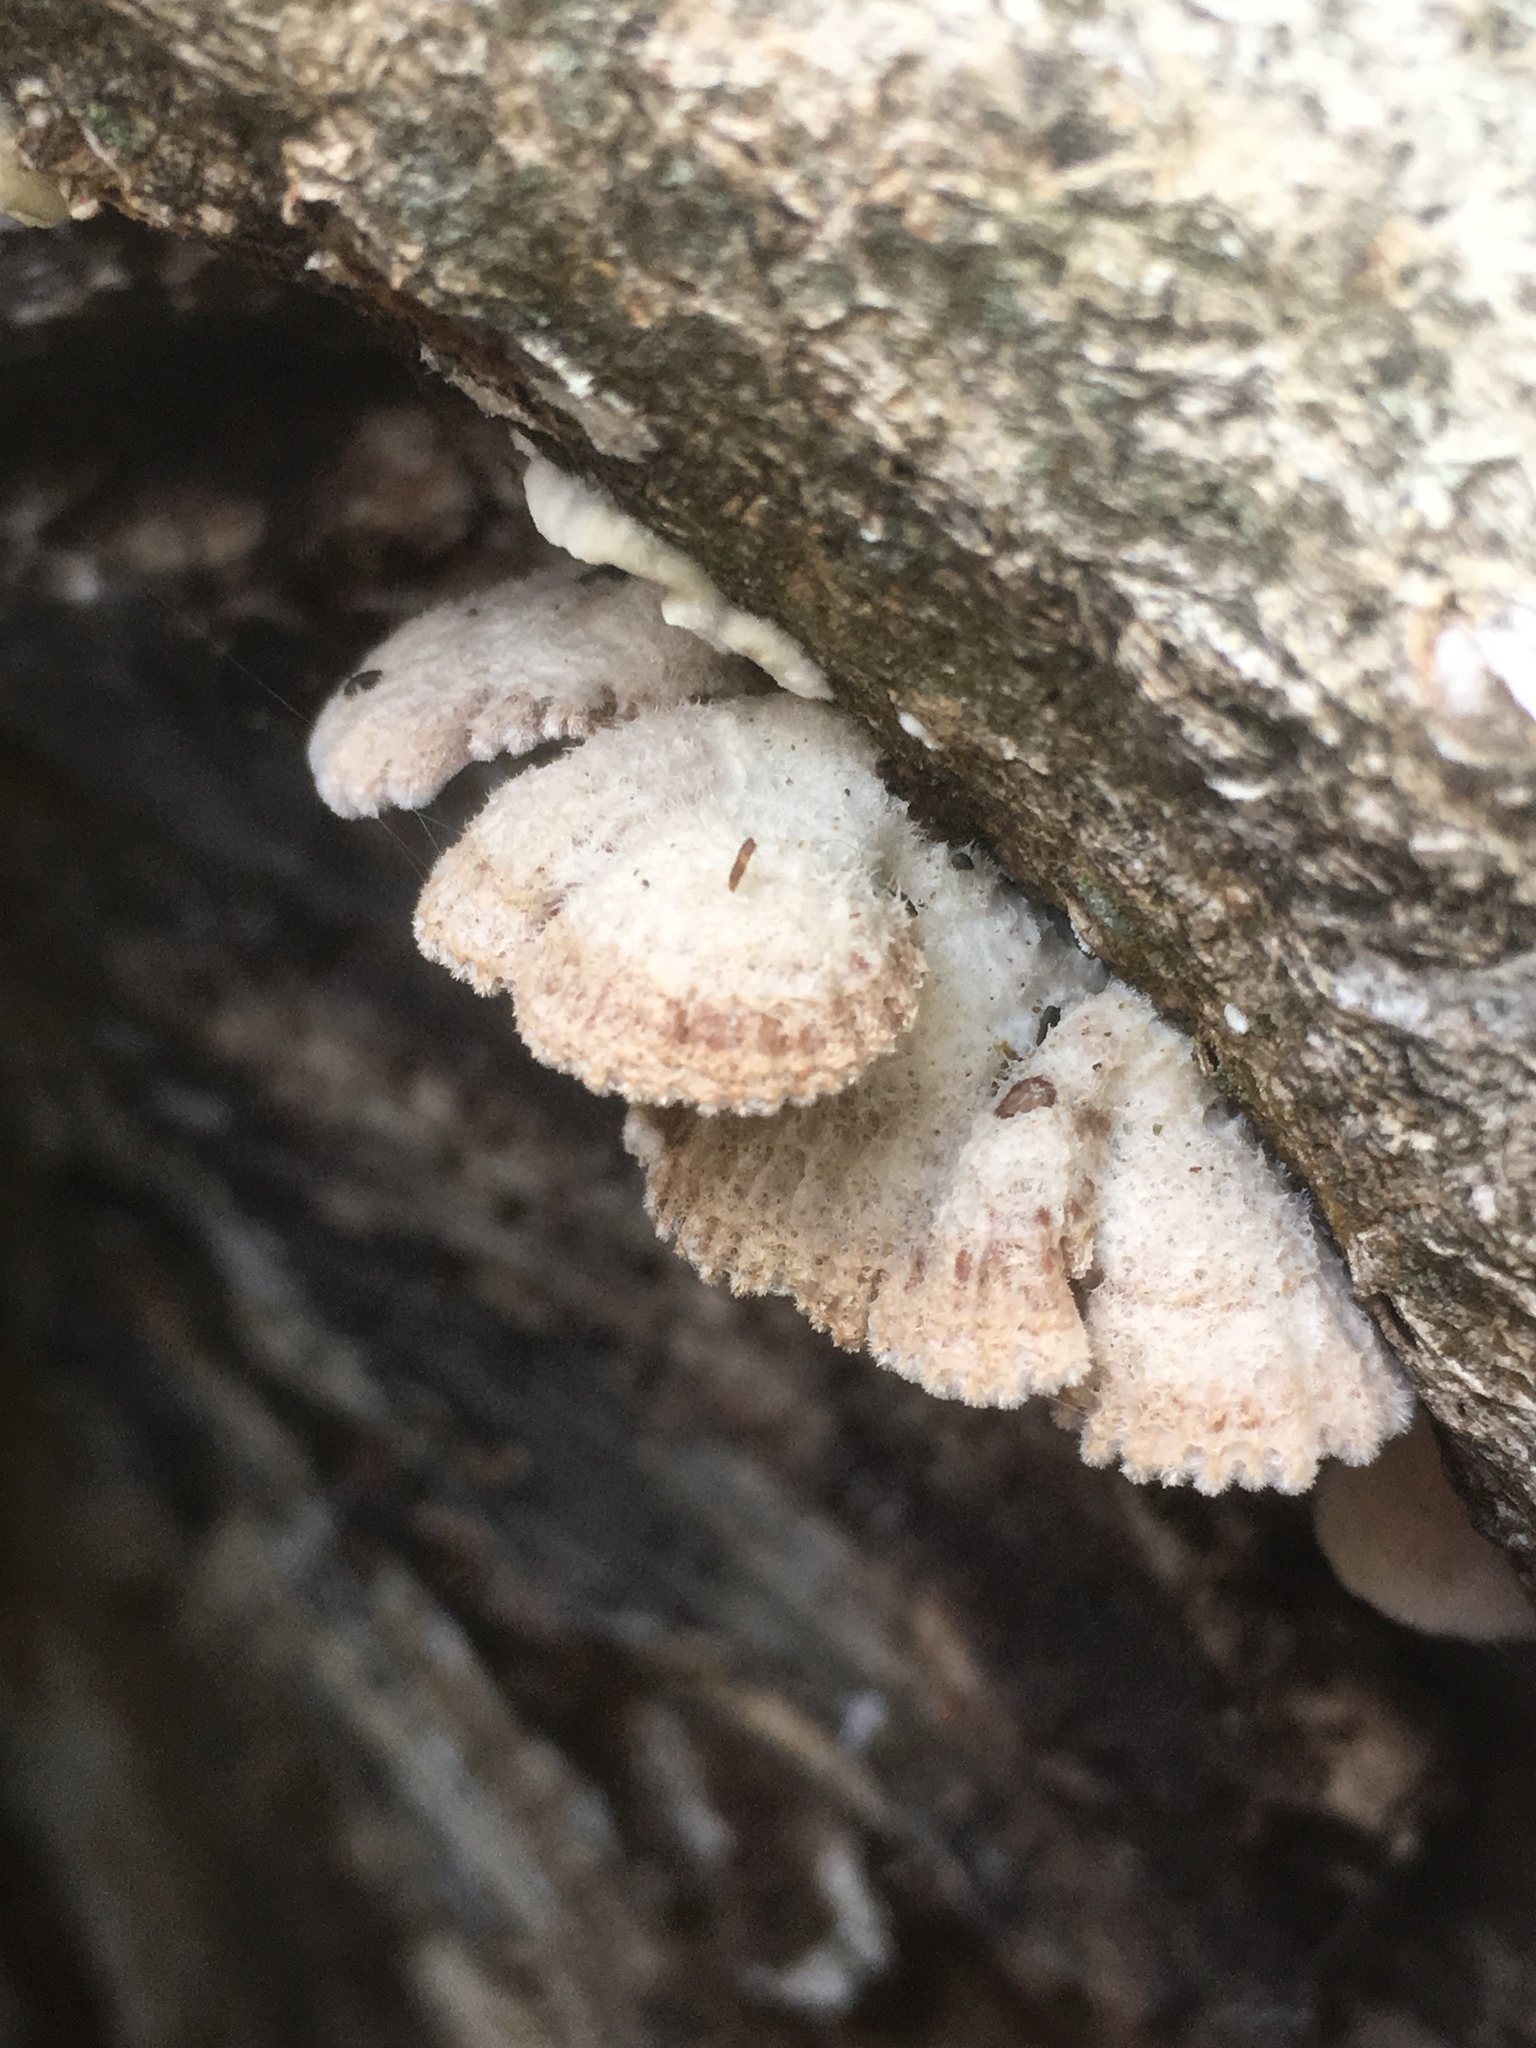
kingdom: Fungi
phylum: Basidiomycota
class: Agaricomycetes
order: Agaricales
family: Schizophyllaceae
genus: Schizophyllum
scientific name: Schizophyllum commune
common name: Common porecrust
